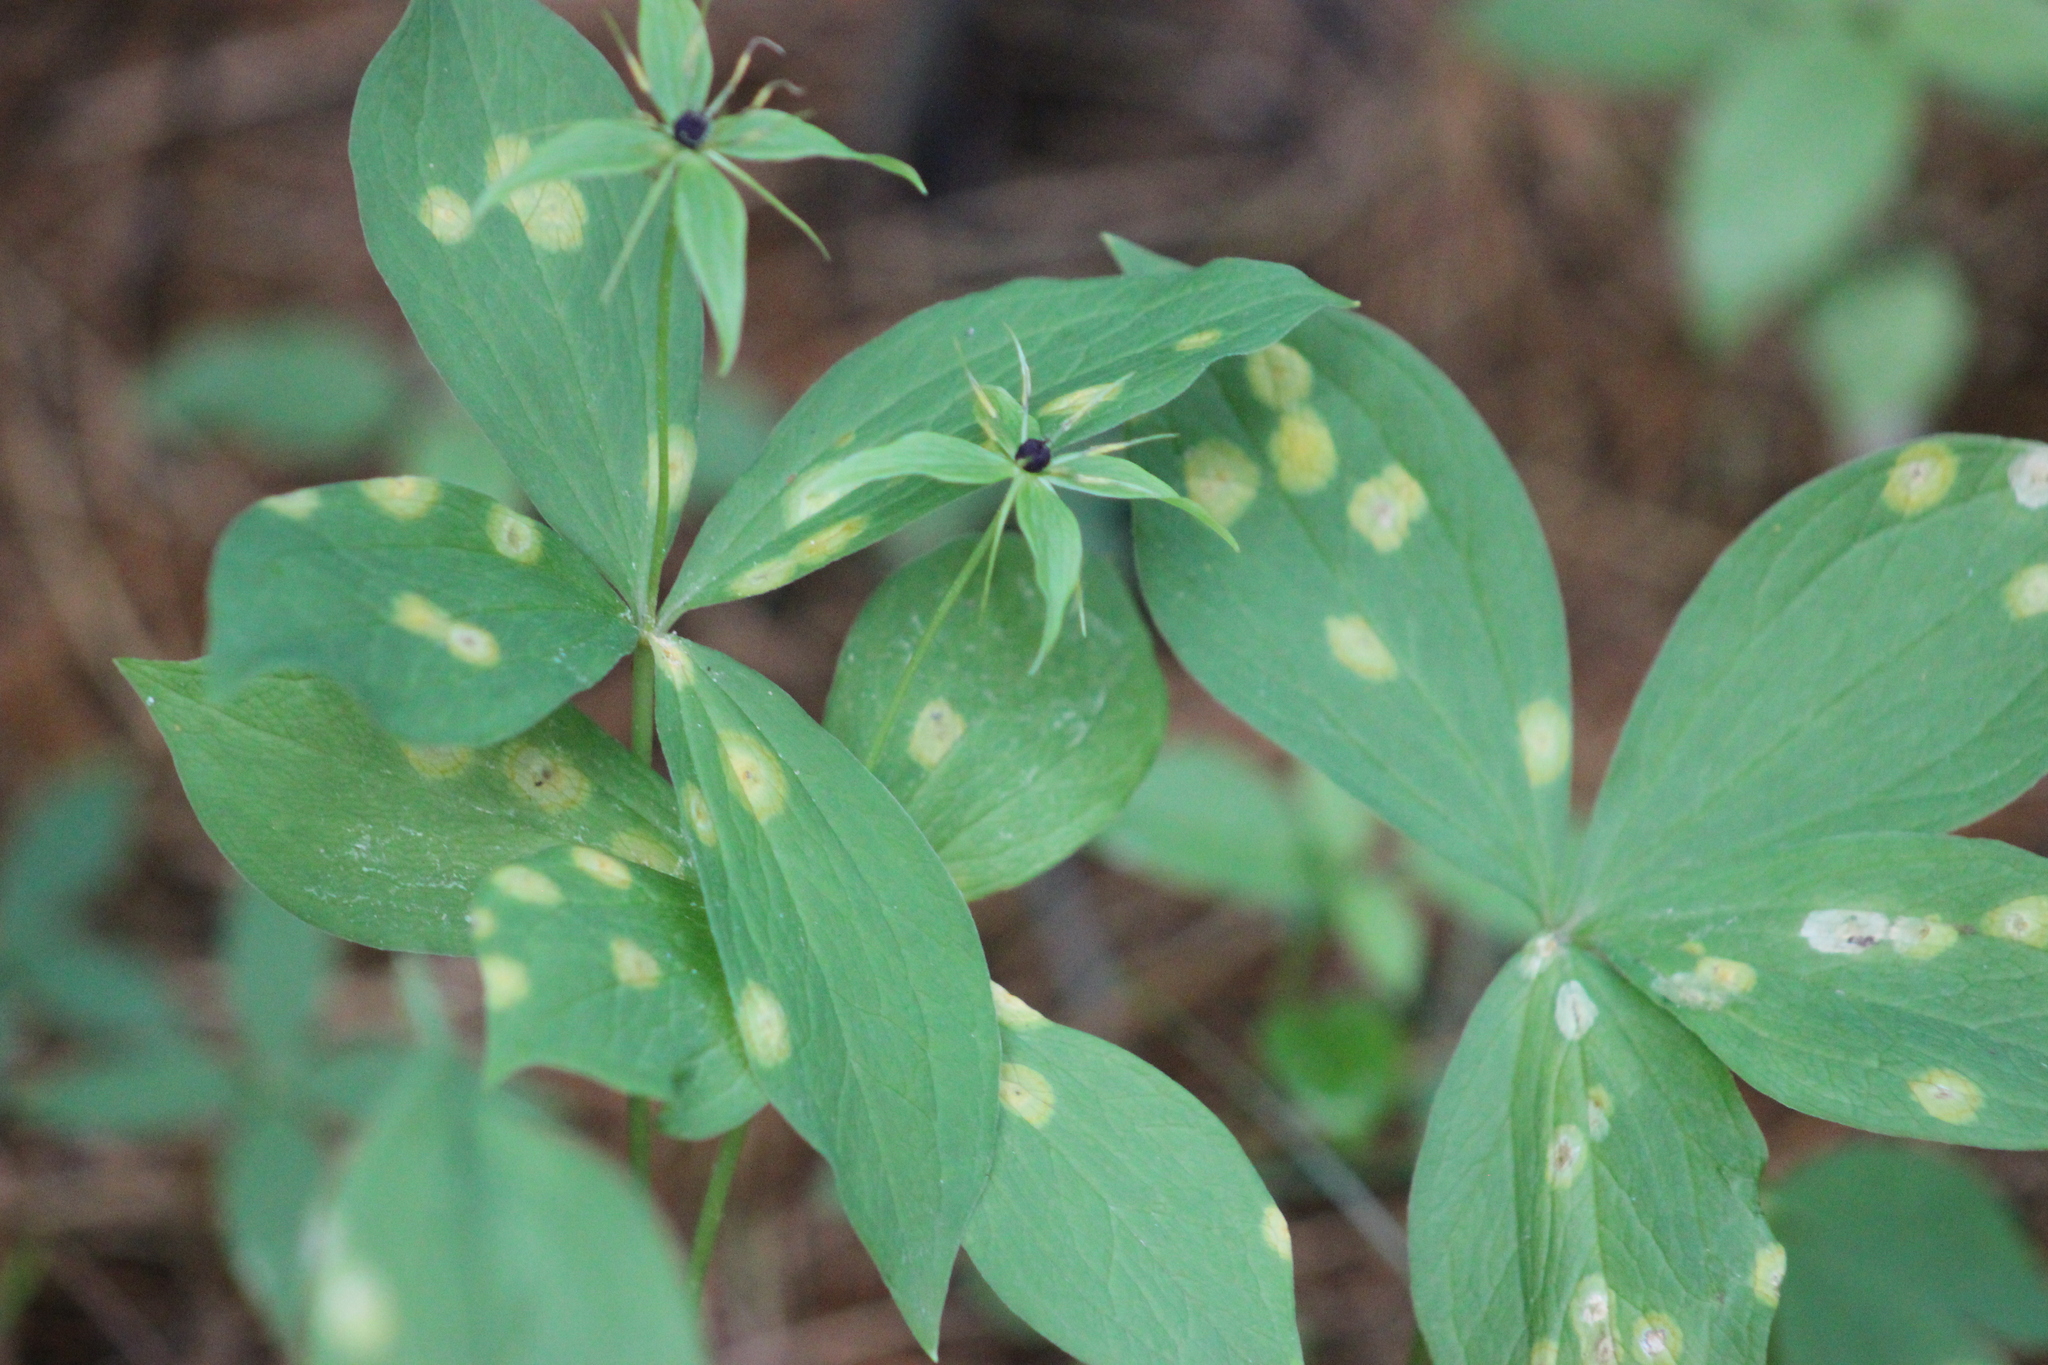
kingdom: Fungi
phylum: Basidiomycota
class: Pucciniomycetes
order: Pucciniales
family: Pucciniaceae
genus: Puccinia
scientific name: Puccinia violae
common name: Violet rust
